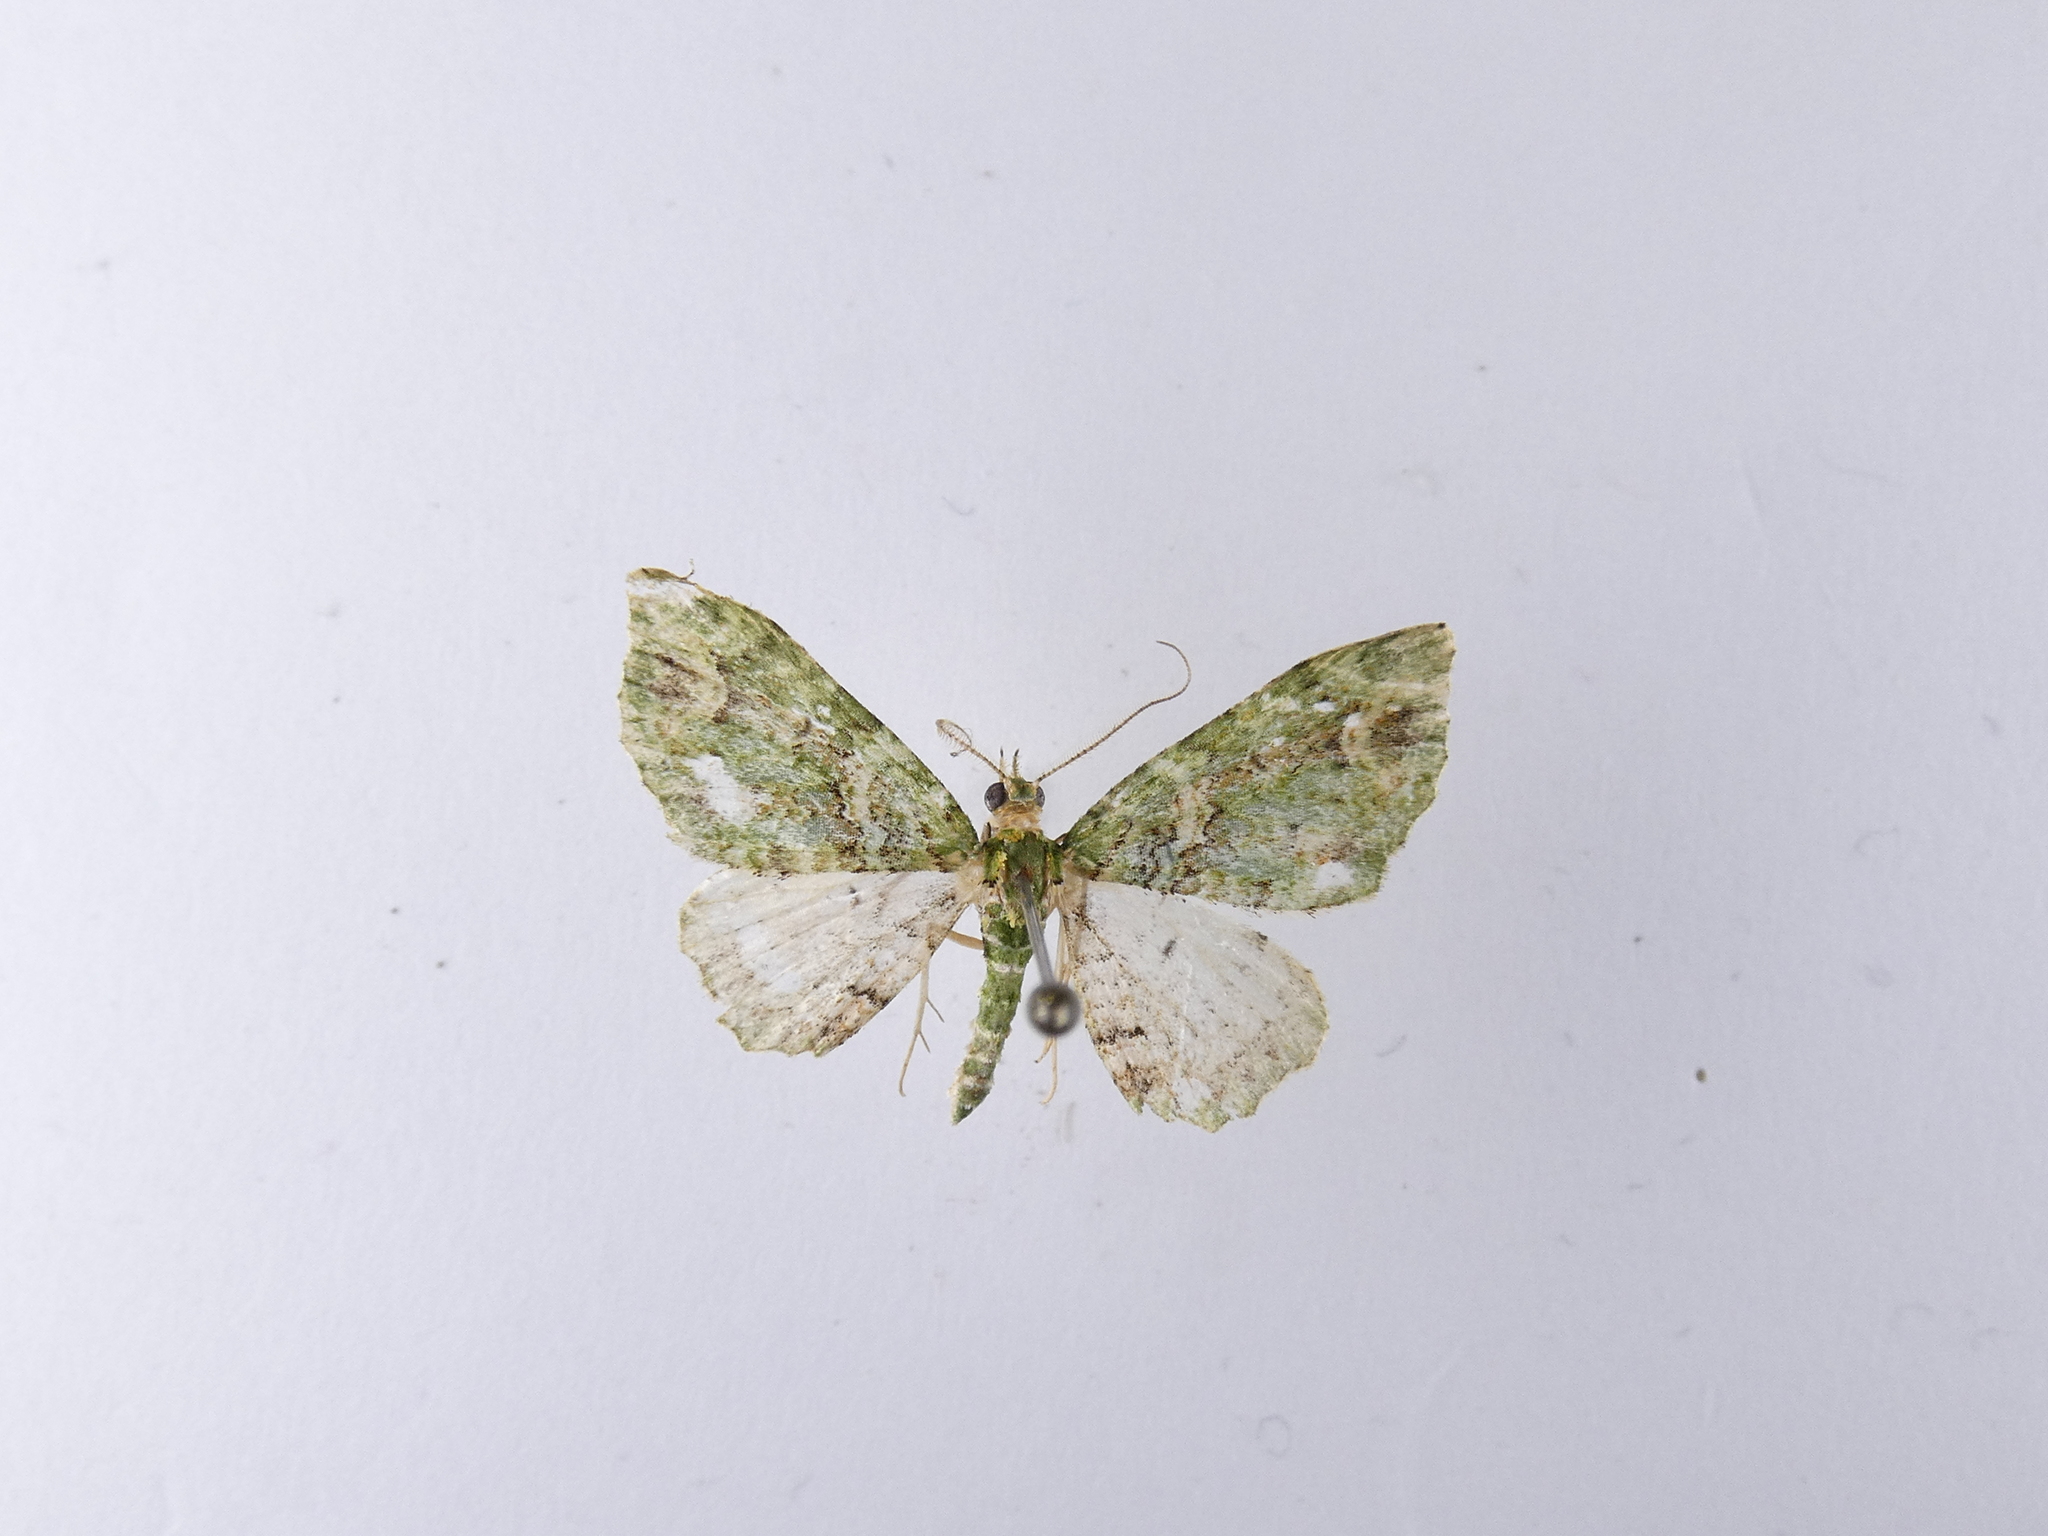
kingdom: Animalia
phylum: Arthropoda
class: Insecta
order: Lepidoptera
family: Geometridae
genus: Pasiphila
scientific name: Pasiphila semochlora
